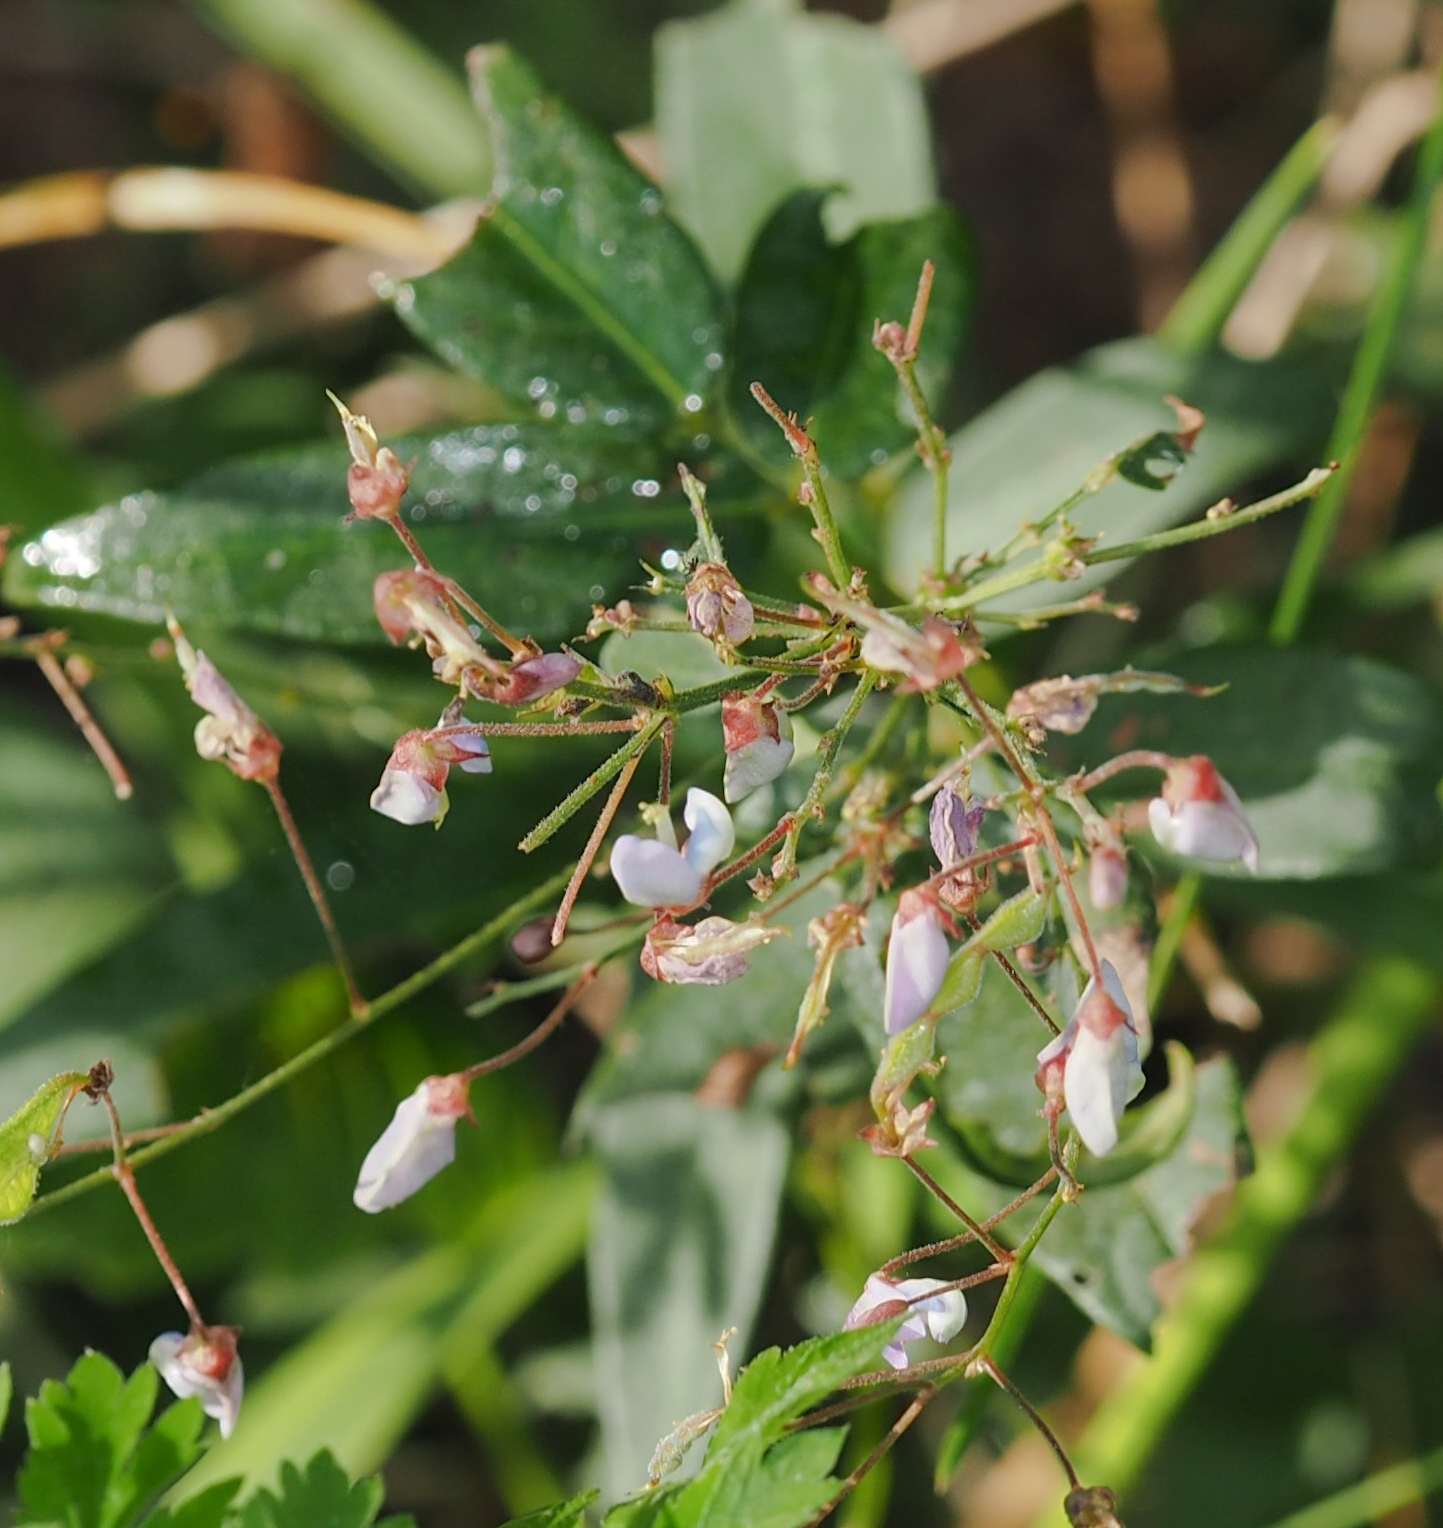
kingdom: Plantae
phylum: Tracheophyta
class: Magnoliopsida
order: Fabales
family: Fabaceae
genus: Desmodium
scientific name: Desmodium paniculatum
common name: Panicled tick-clover
